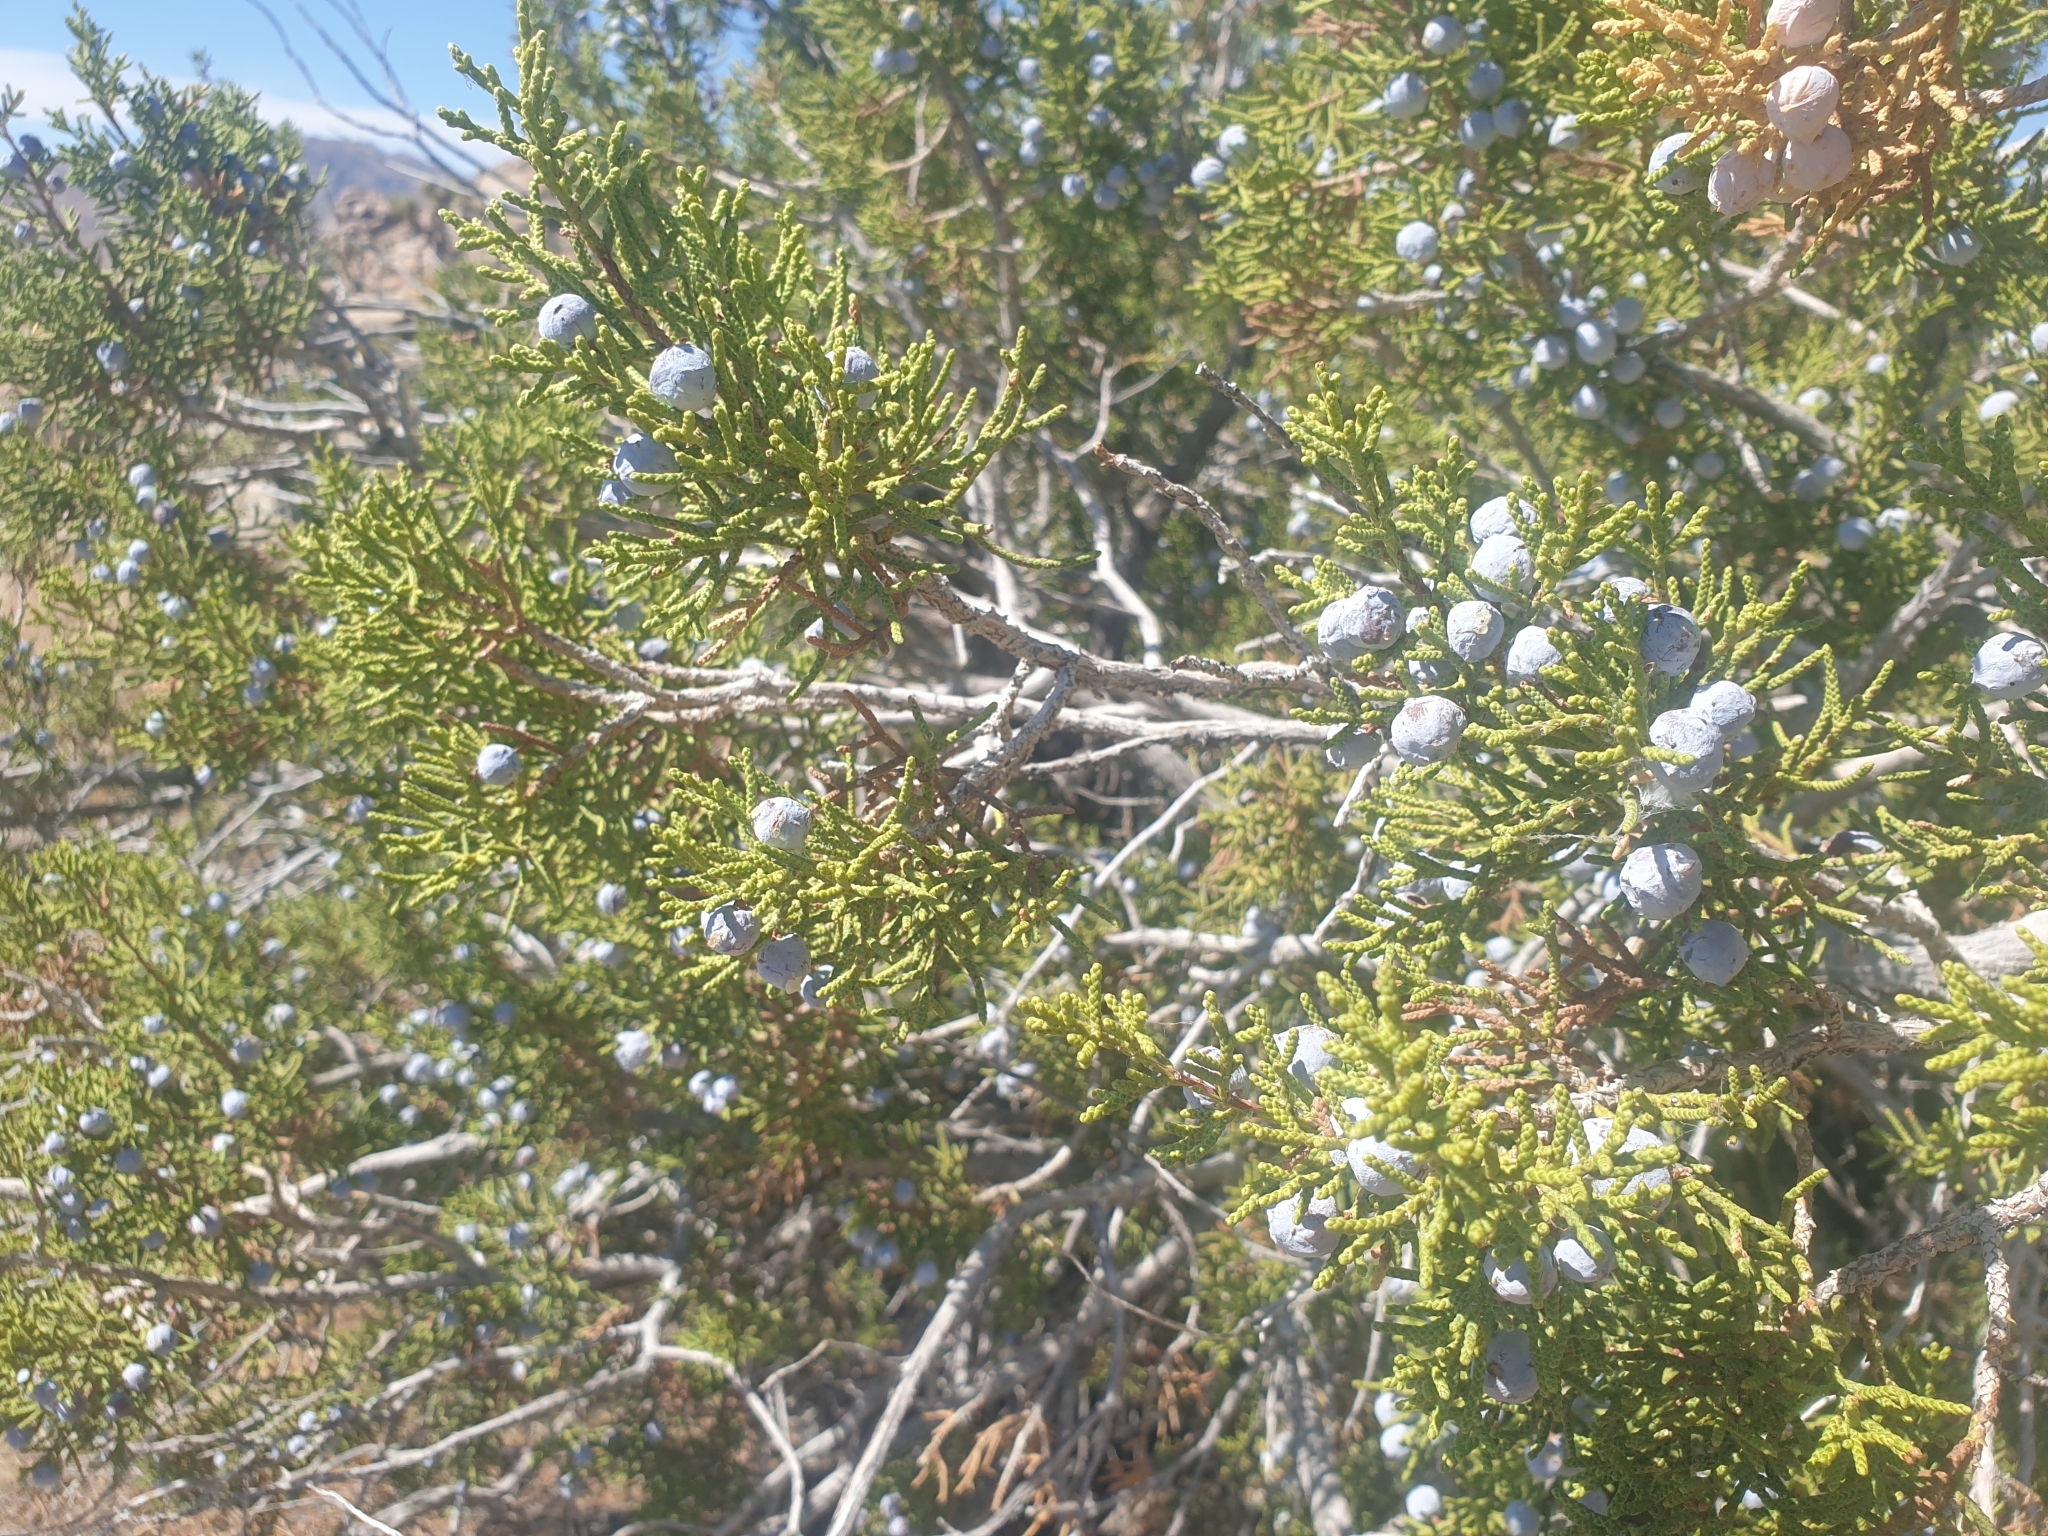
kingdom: Plantae
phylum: Tracheophyta
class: Pinopsida
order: Pinales
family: Cupressaceae
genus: Juniperus
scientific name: Juniperus californica
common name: California juniper
